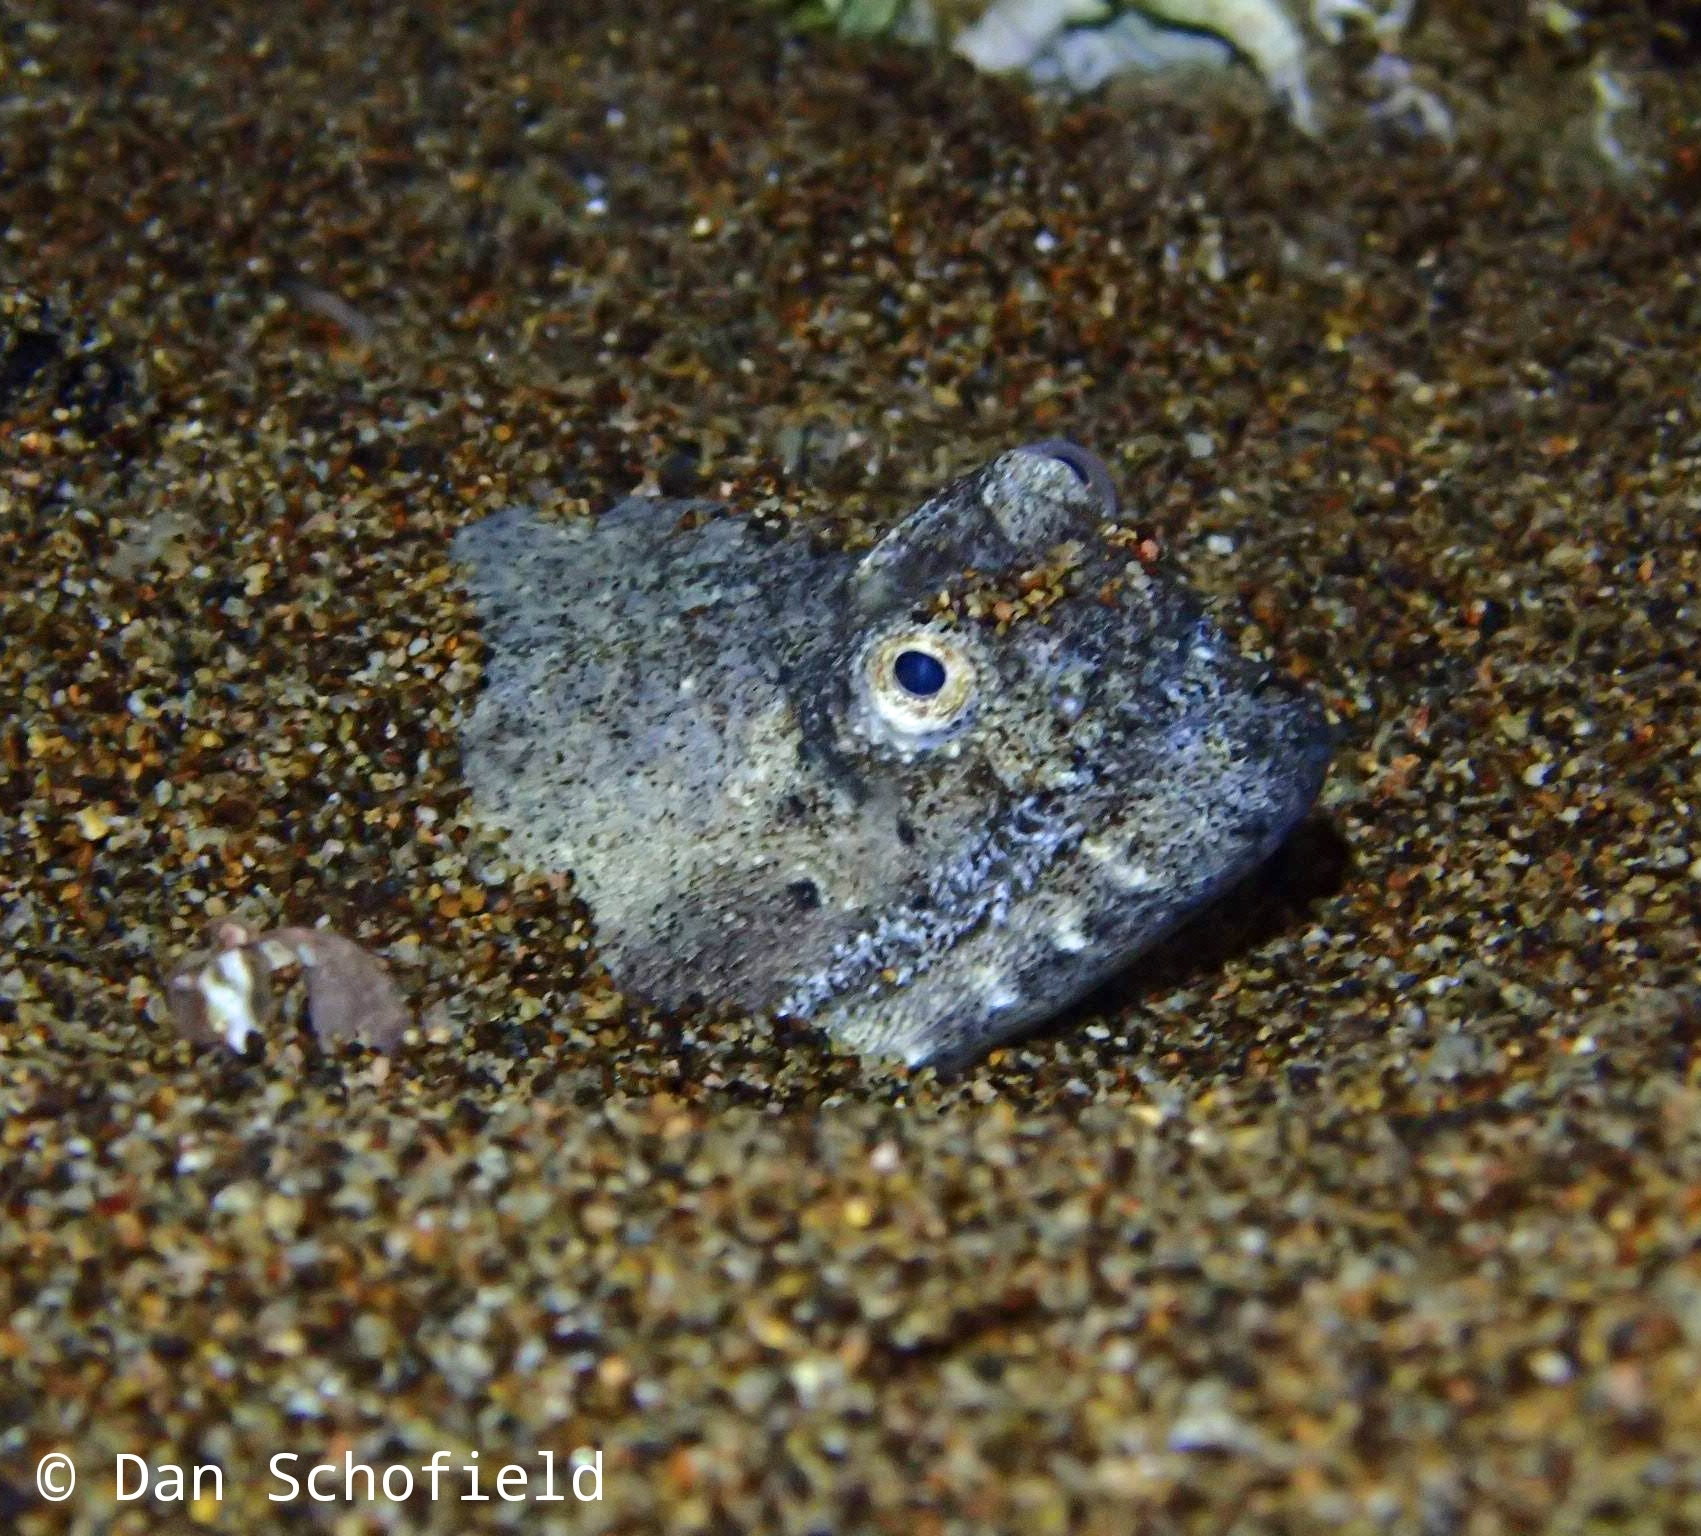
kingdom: Animalia
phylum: Chordata
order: Anguilliformes
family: Ophichthidae
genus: Brachysomophis
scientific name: Brachysomophis crocodilinus
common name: Crocodile snake eel
